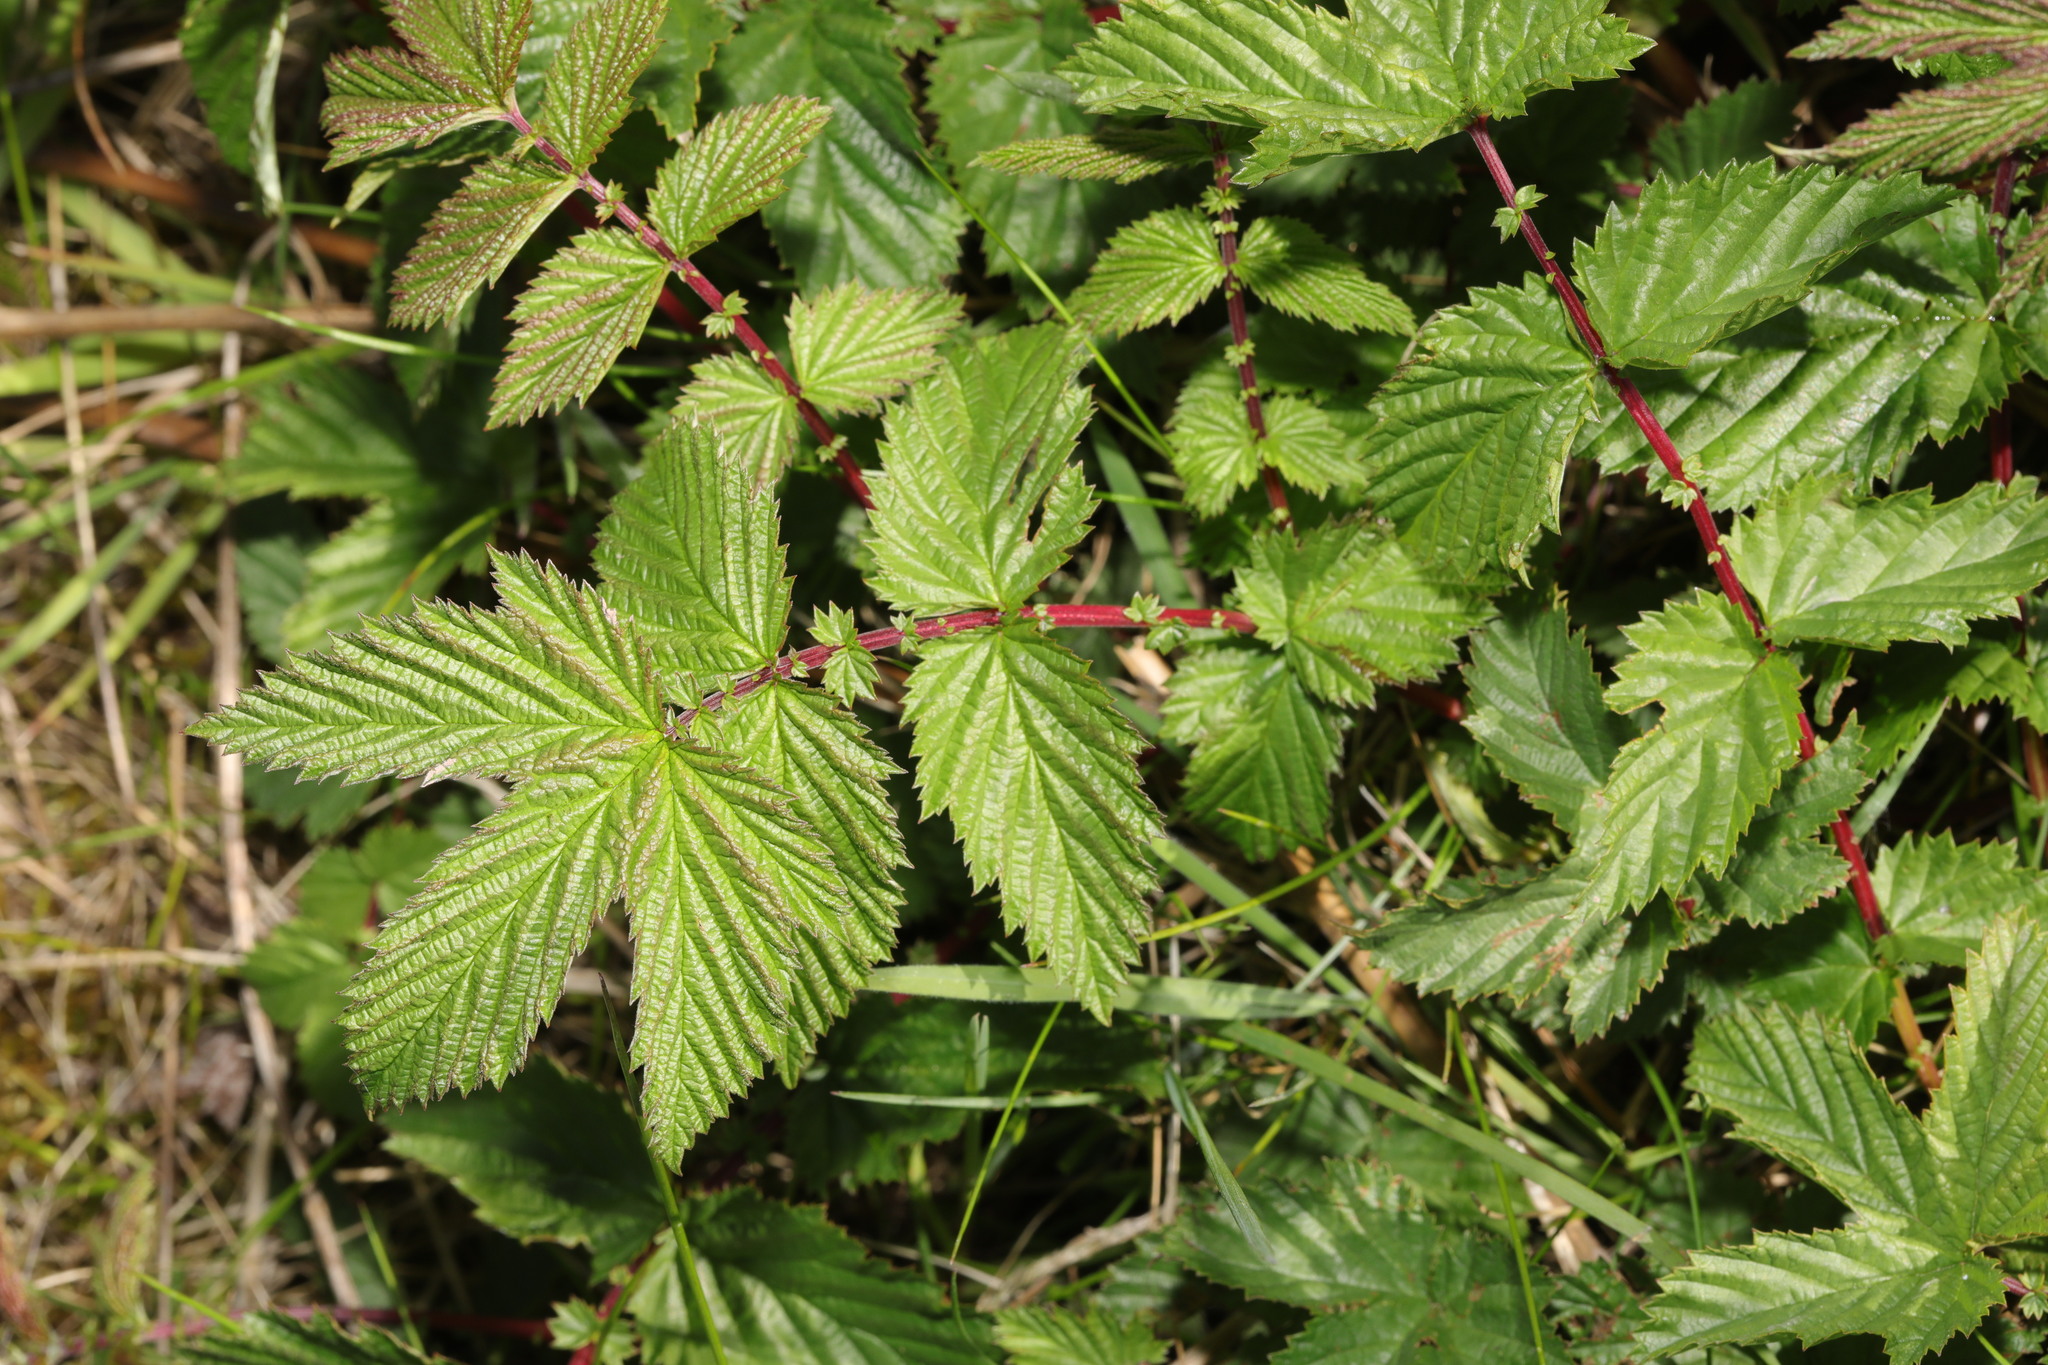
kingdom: Plantae
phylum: Tracheophyta
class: Magnoliopsida
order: Rosales
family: Rosaceae
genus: Filipendula
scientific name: Filipendula ulmaria
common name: Meadowsweet
